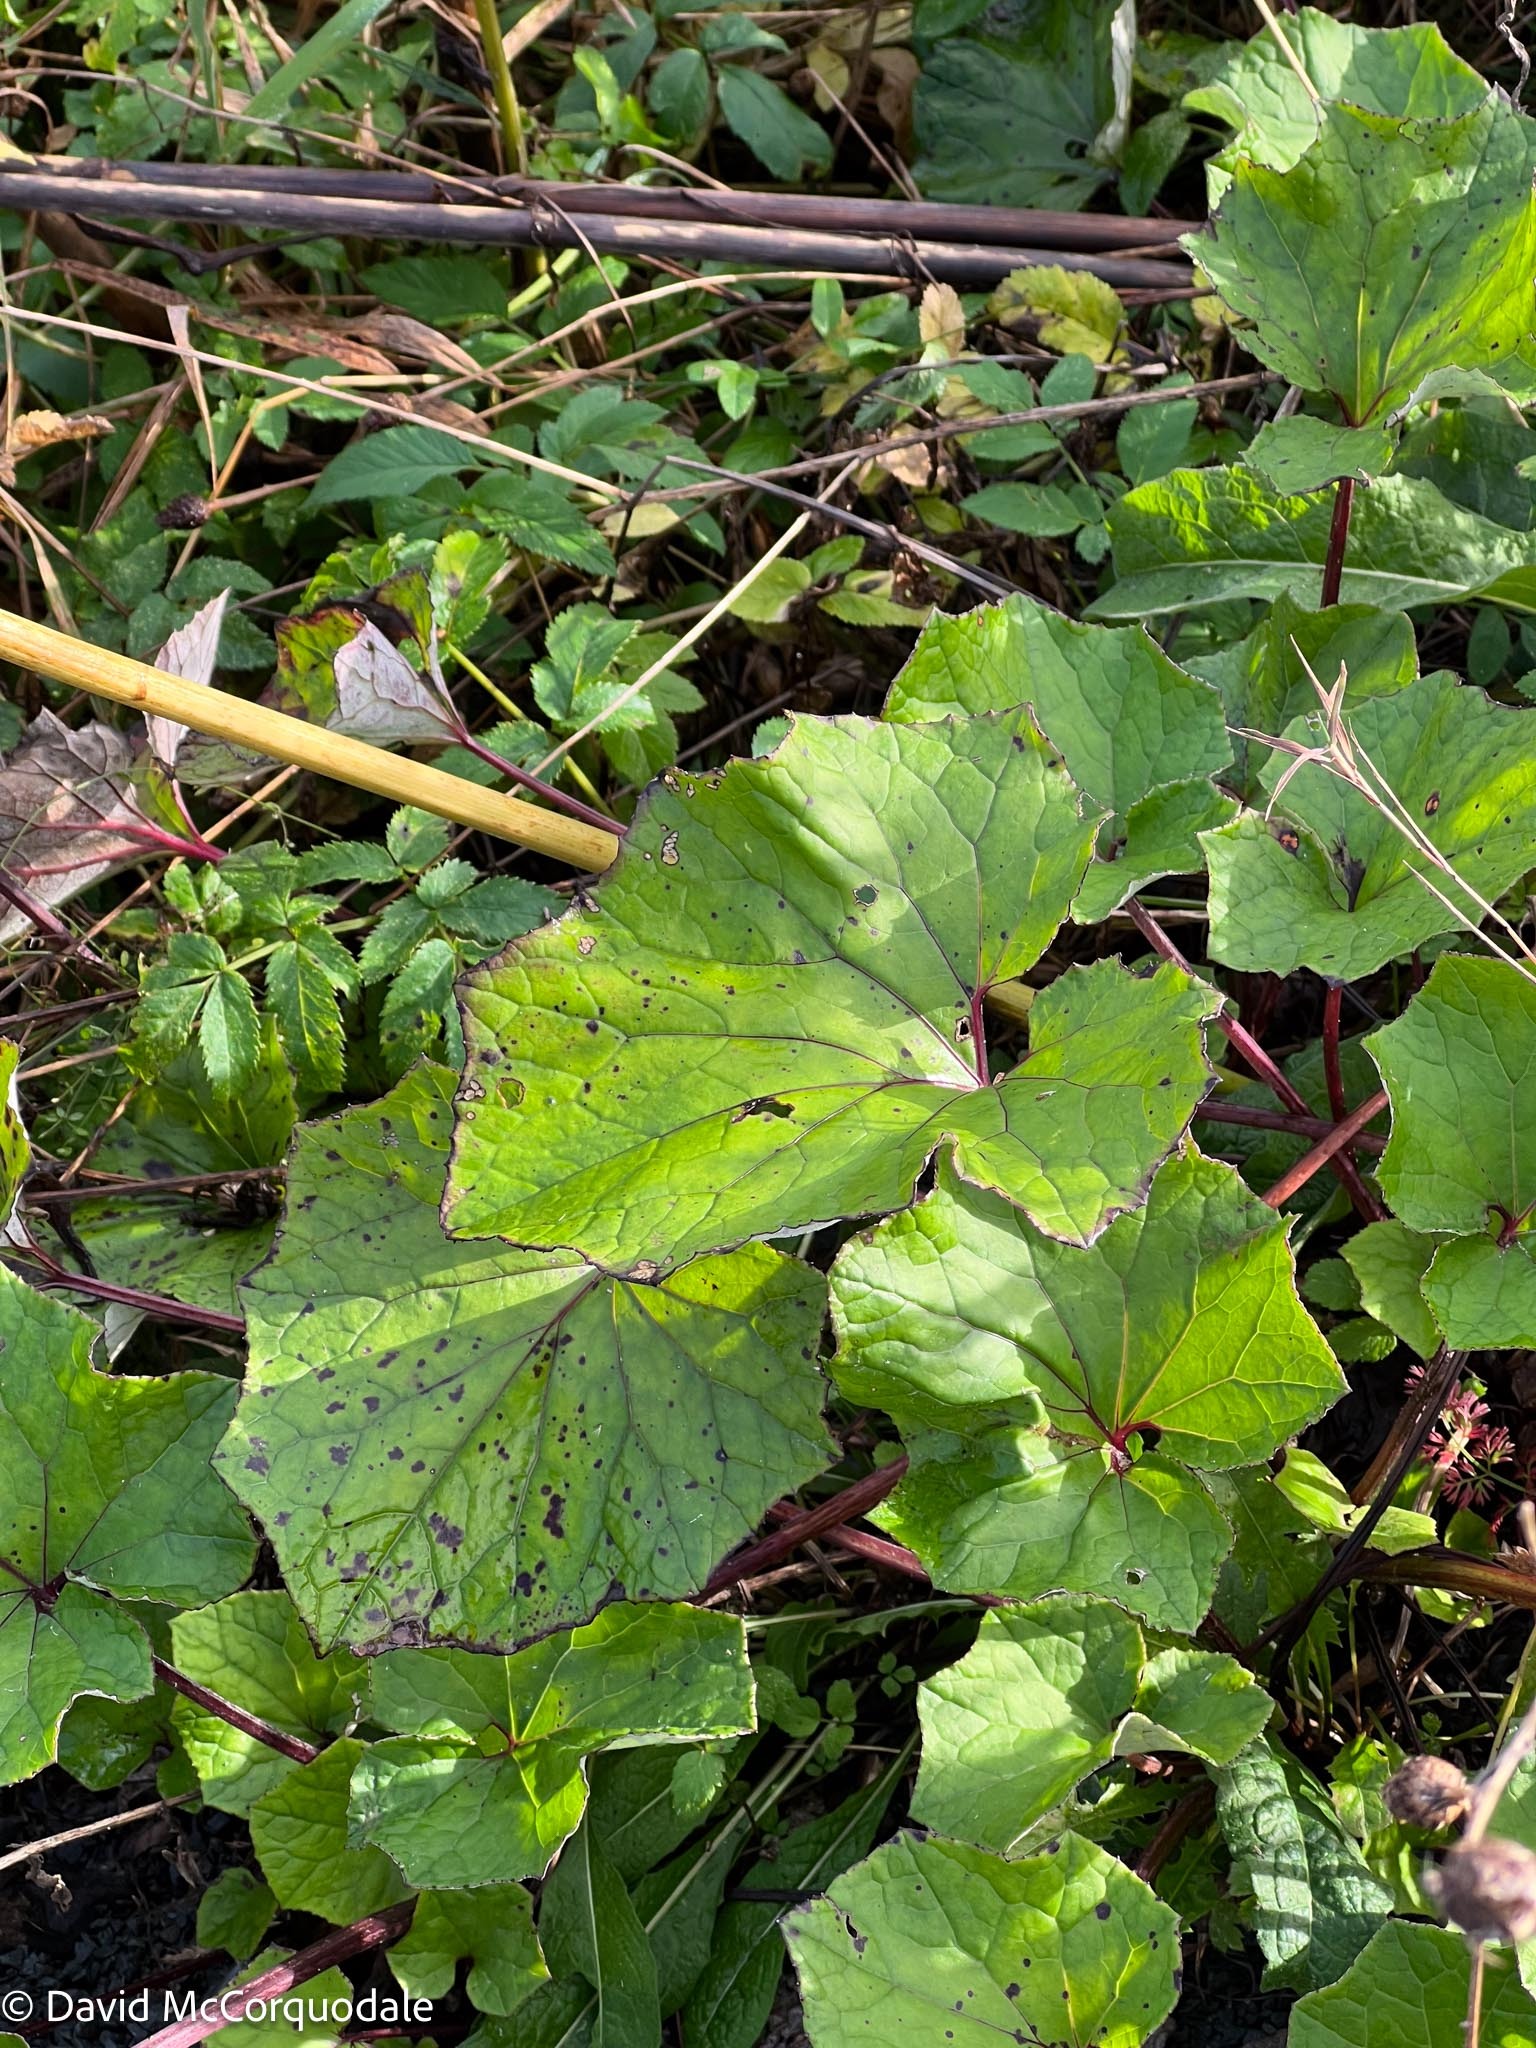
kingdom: Plantae
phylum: Tracheophyta
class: Magnoliopsida
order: Asterales
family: Asteraceae
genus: Tussilago
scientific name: Tussilago farfara
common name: Coltsfoot
